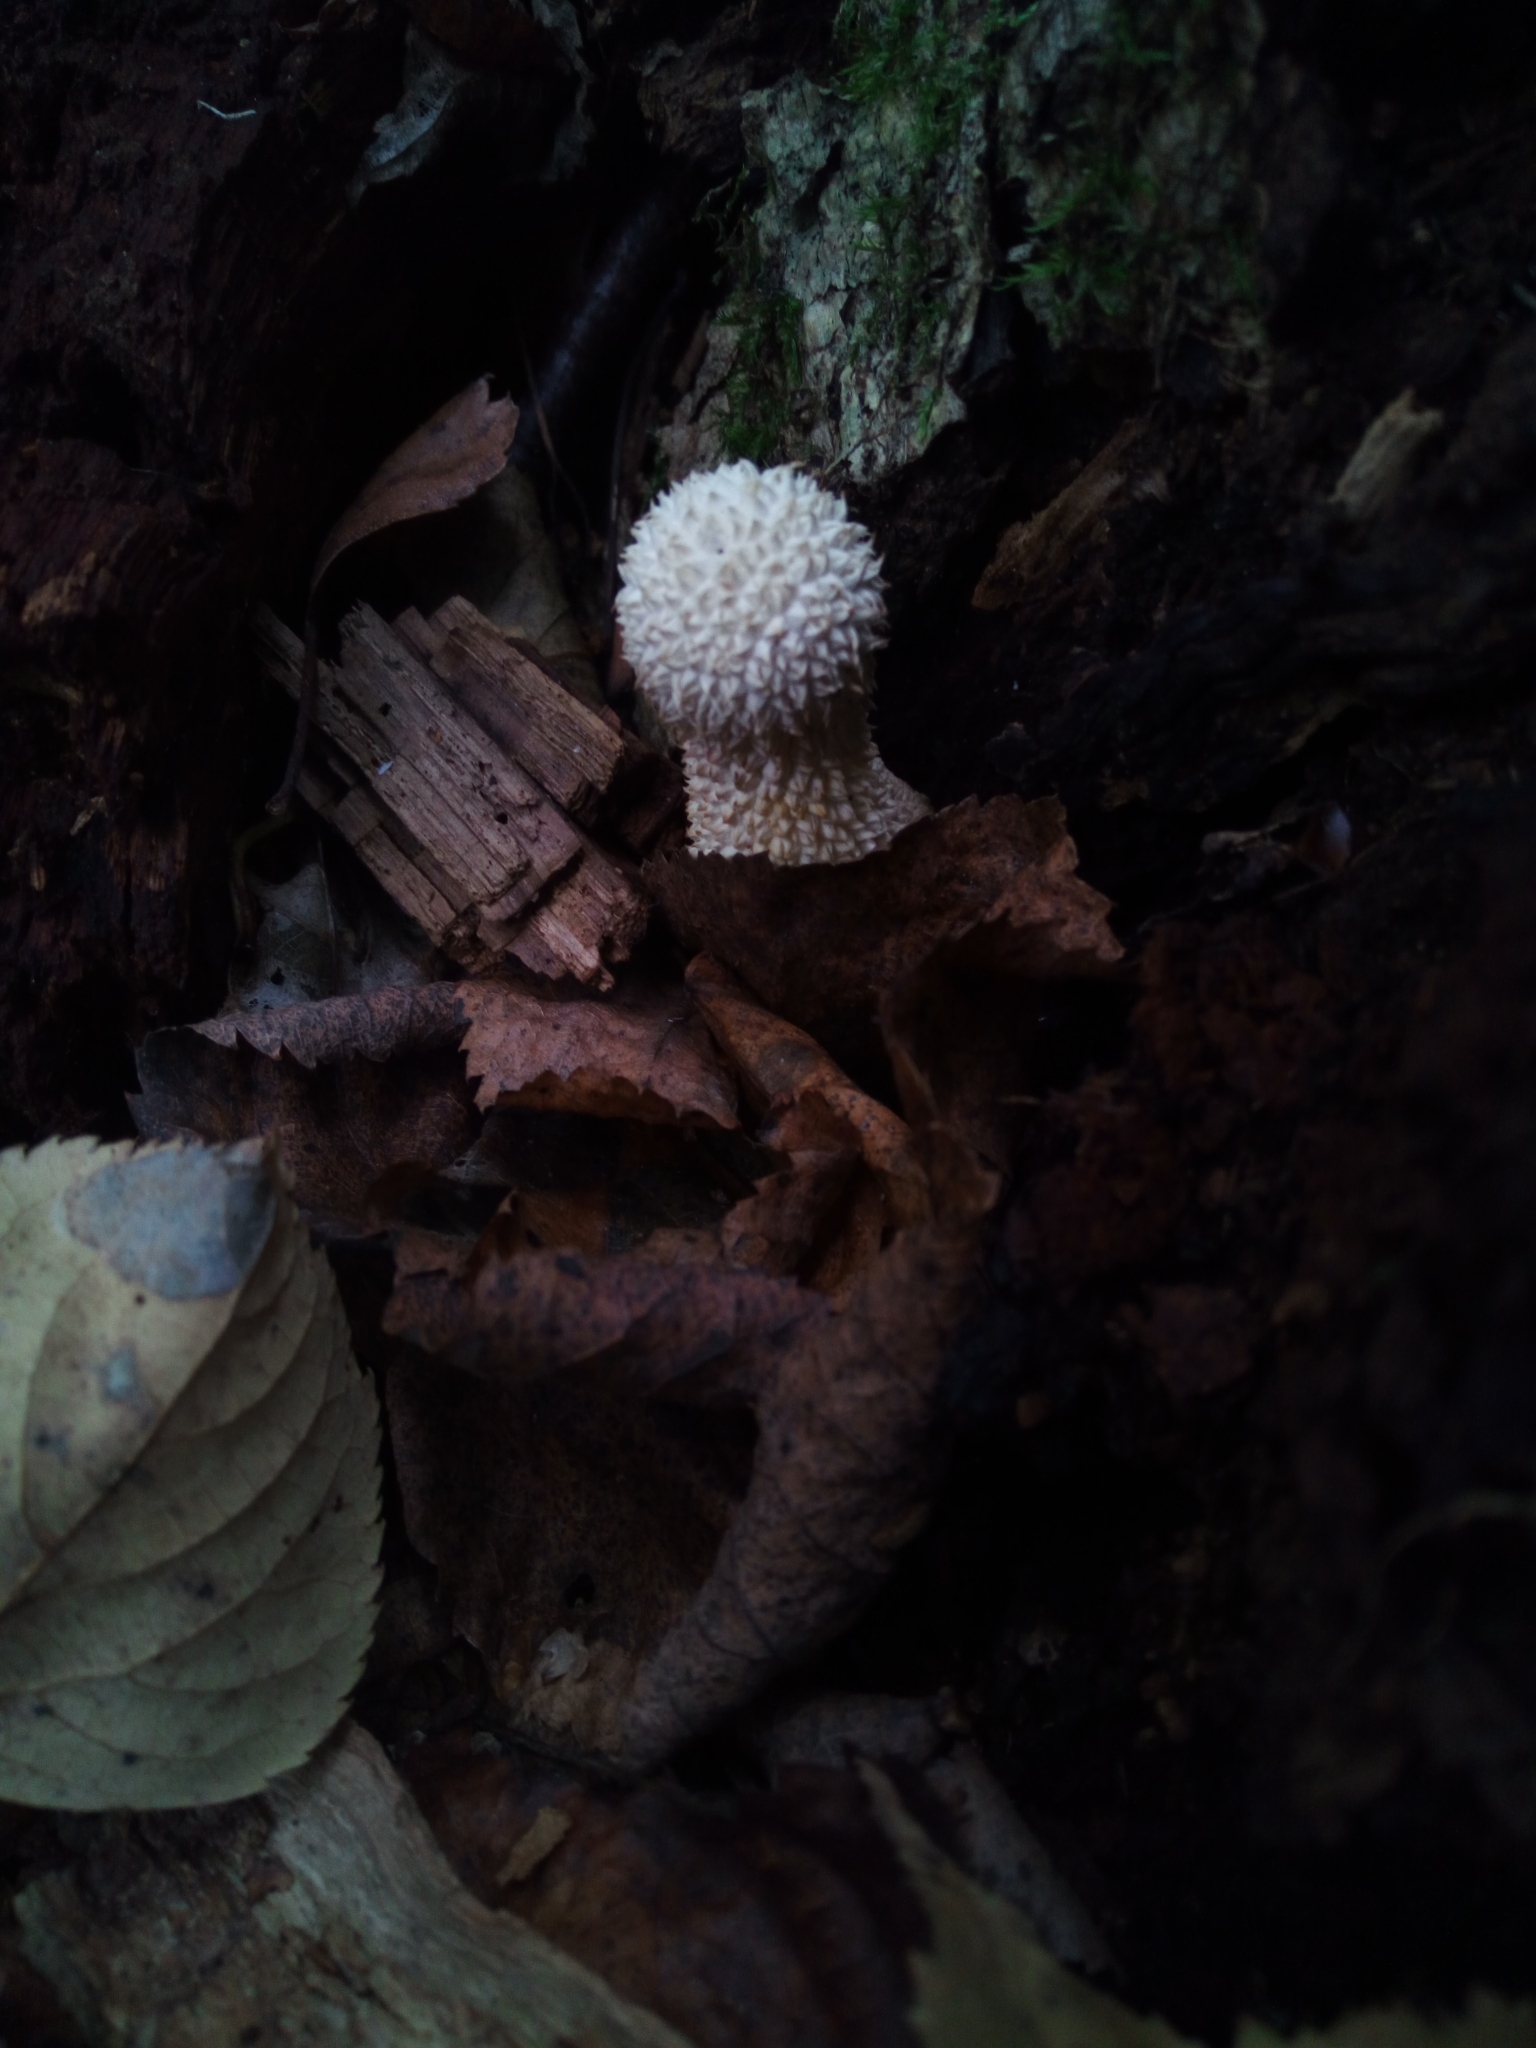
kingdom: Fungi
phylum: Basidiomycota
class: Agaricomycetes
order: Agaricales
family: Agaricaceae
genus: Lycoperdon
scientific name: Lycoperdon marginatum
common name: Peeling puffball
